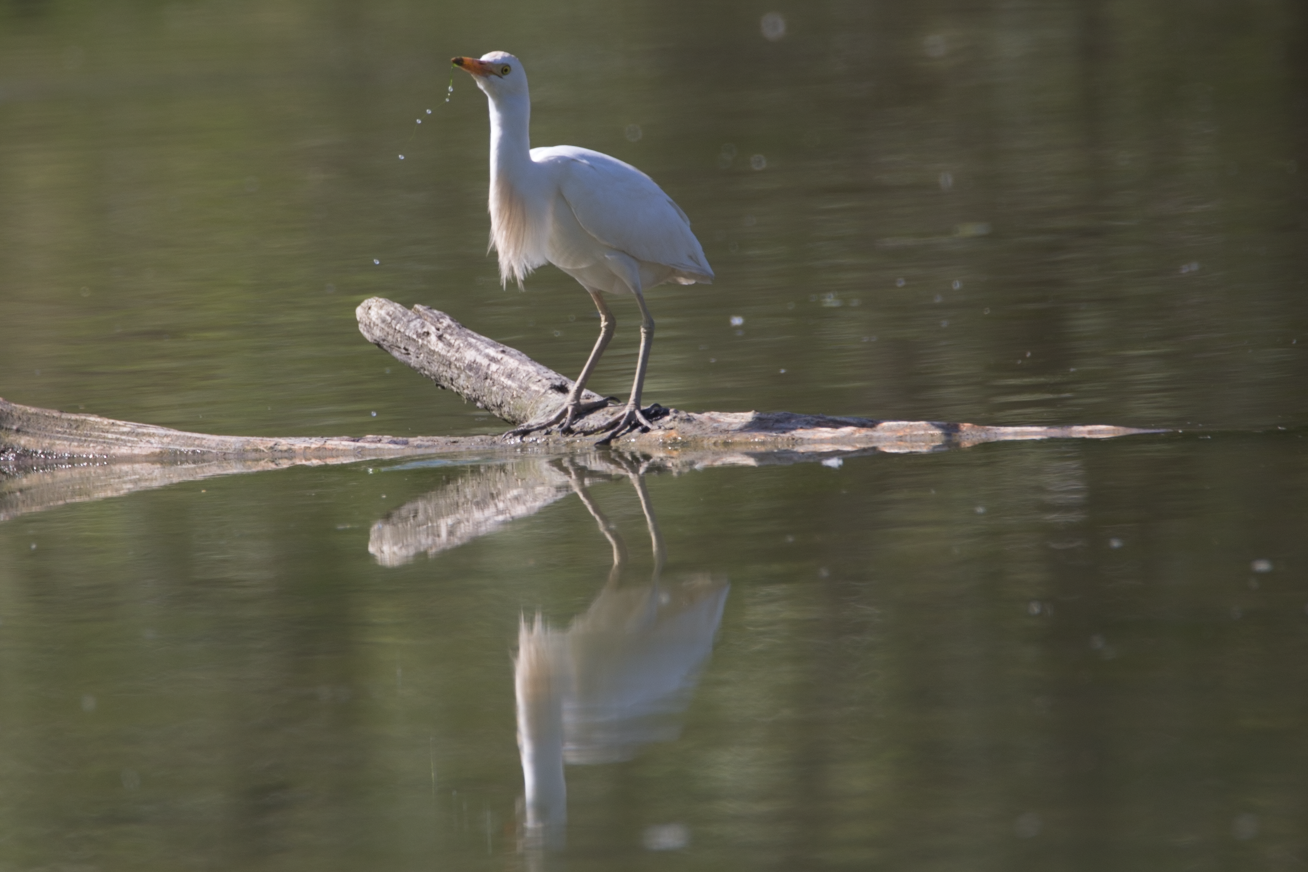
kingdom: Animalia
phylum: Chordata
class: Aves
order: Pelecaniformes
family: Ardeidae
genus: Bubulcus
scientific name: Bubulcus ibis
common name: Cattle egret
